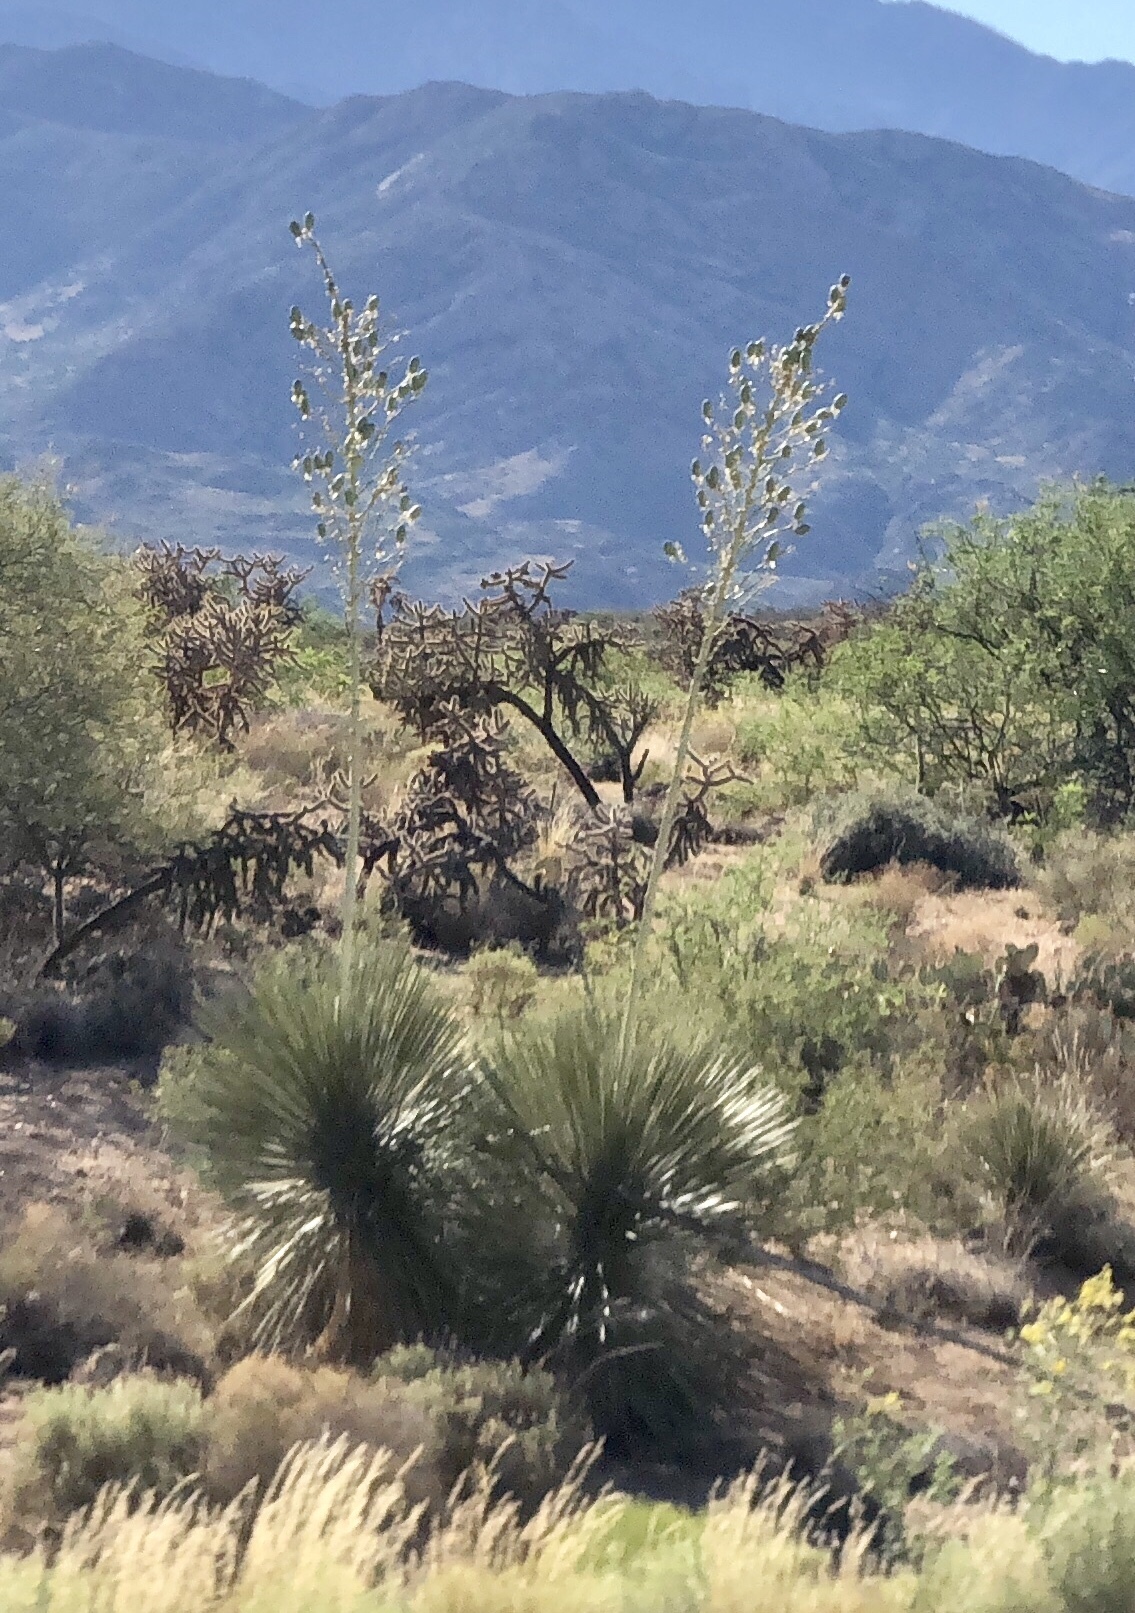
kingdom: Plantae
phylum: Tracheophyta
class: Liliopsida
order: Asparagales
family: Asparagaceae
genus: Yucca
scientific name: Yucca elata
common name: Palmella
